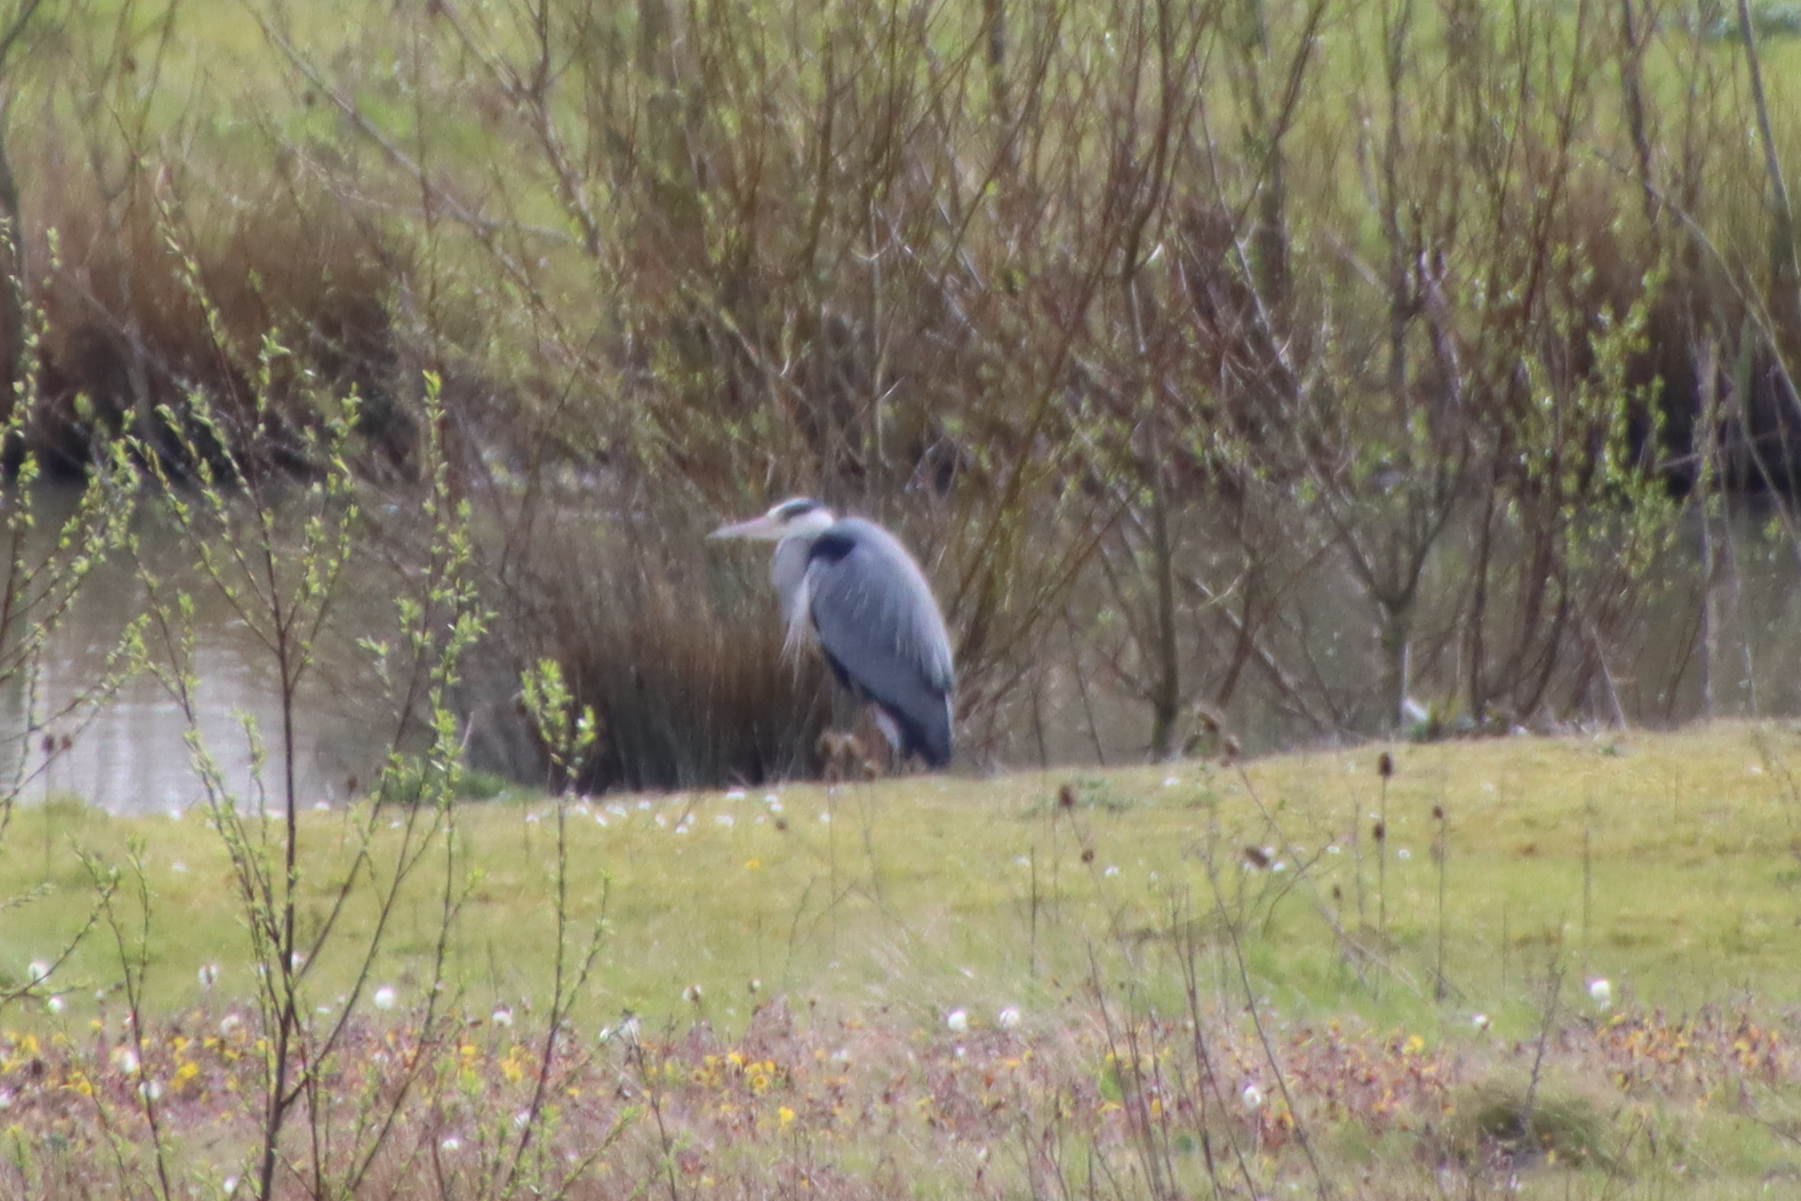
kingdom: Animalia
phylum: Chordata
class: Aves
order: Pelecaniformes
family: Ardeidae
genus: Ardea
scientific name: Ardea cinerea
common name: Grey heron
